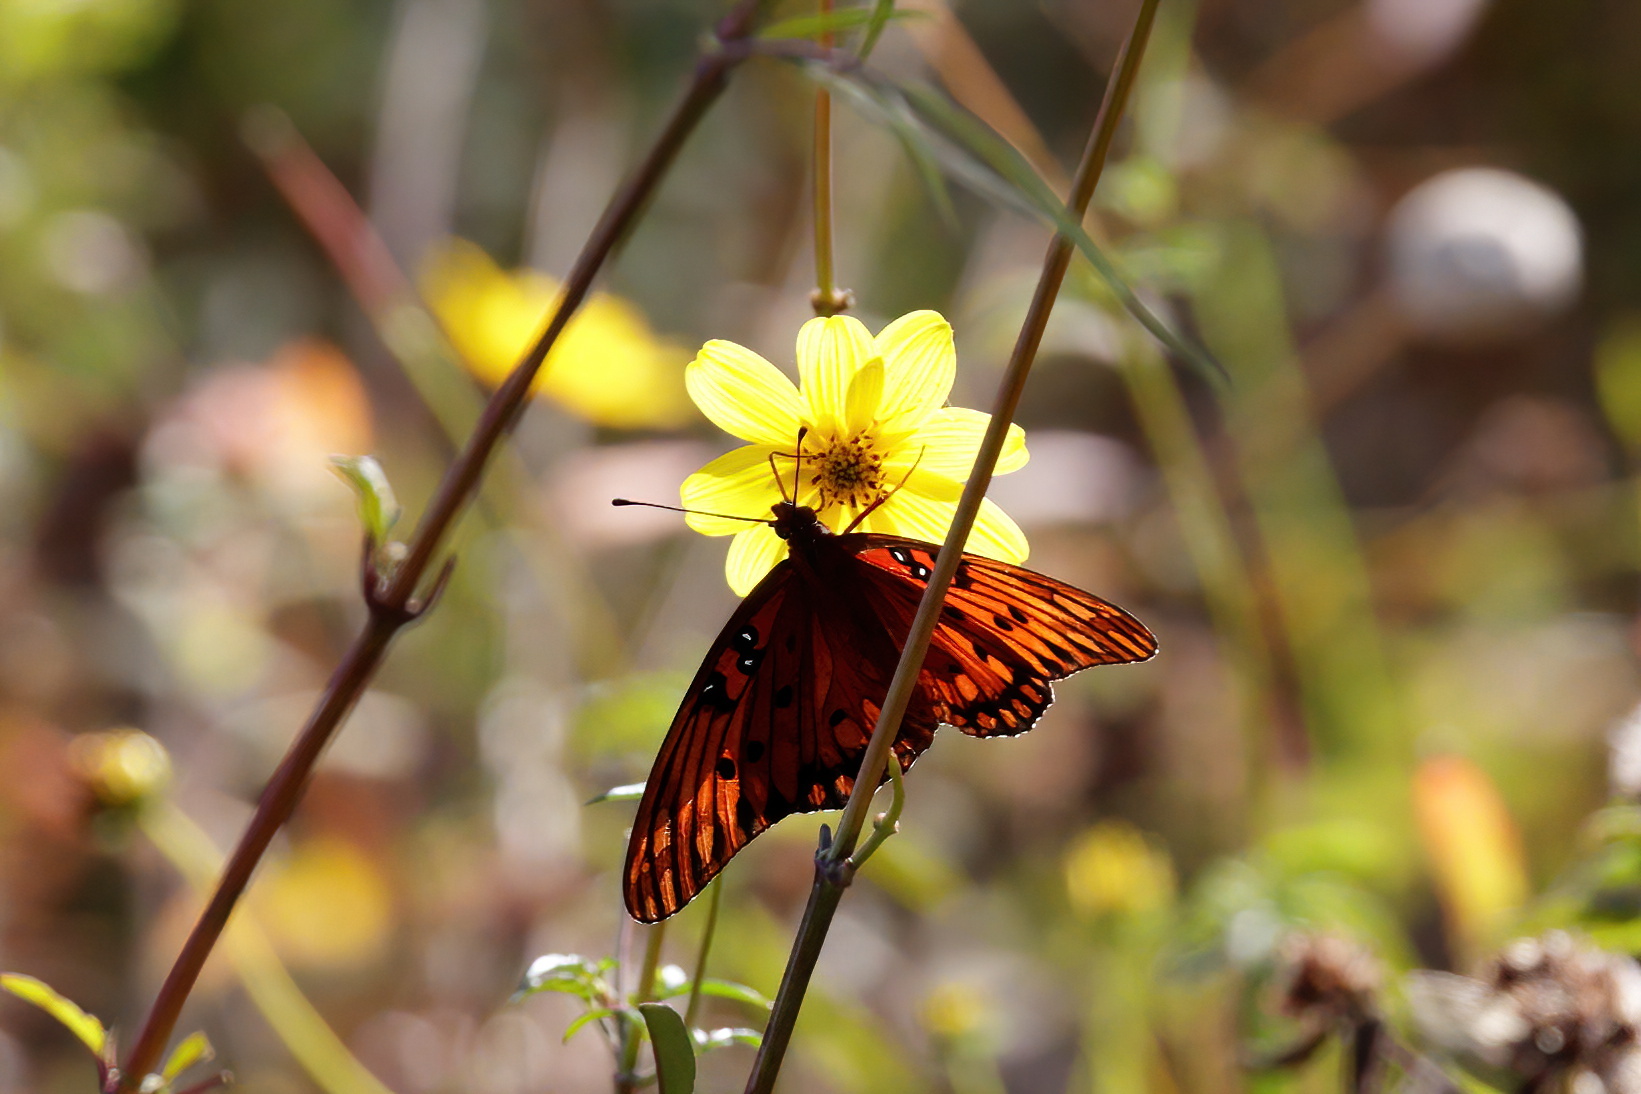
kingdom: Animalia
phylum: Arthropoda
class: Insecta
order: Lepidoptera
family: Nymphalidae
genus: Dione
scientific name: Dione vanillae
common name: Gulf fritillary
